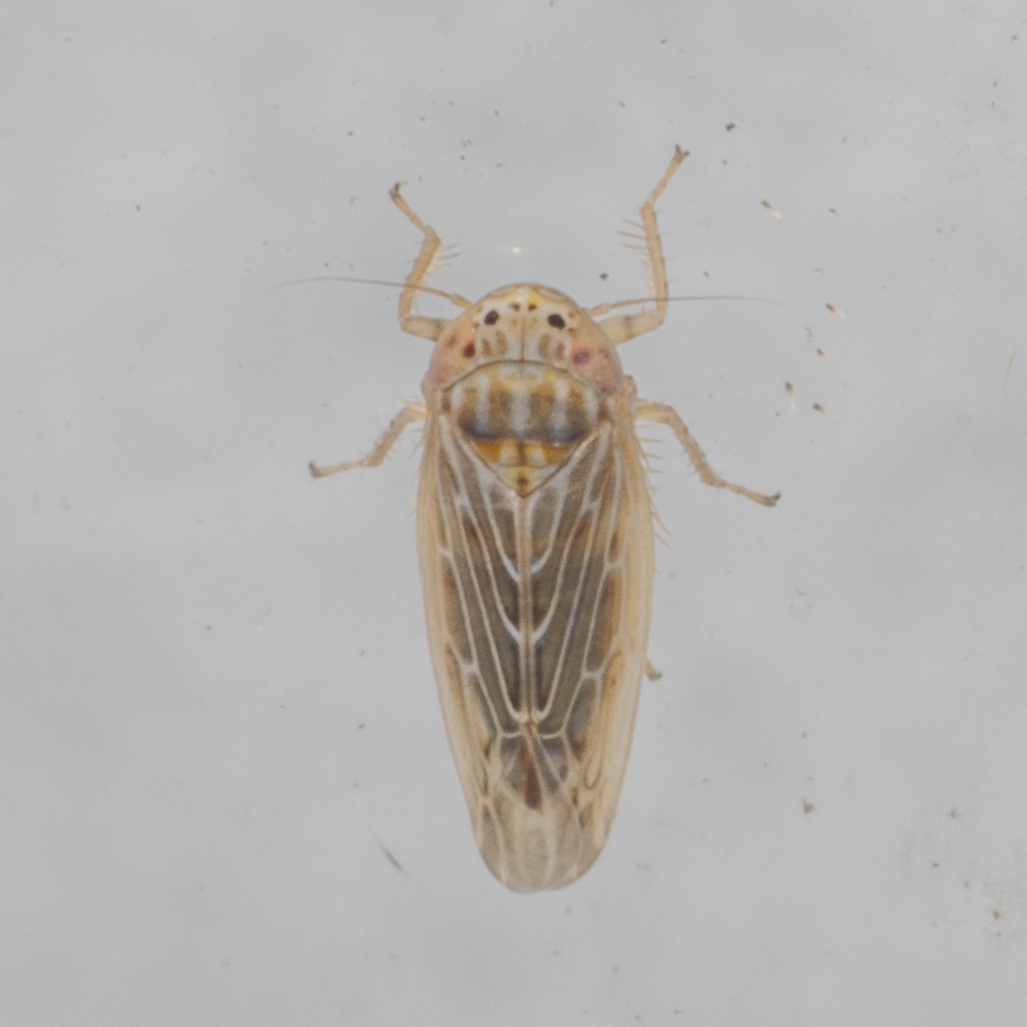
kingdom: Animalia
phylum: Arthropoda
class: Insecta
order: Hemiptera
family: Cicadellidae
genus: Graminella
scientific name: Graminella sonora
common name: Lesser lawn leafhopper
